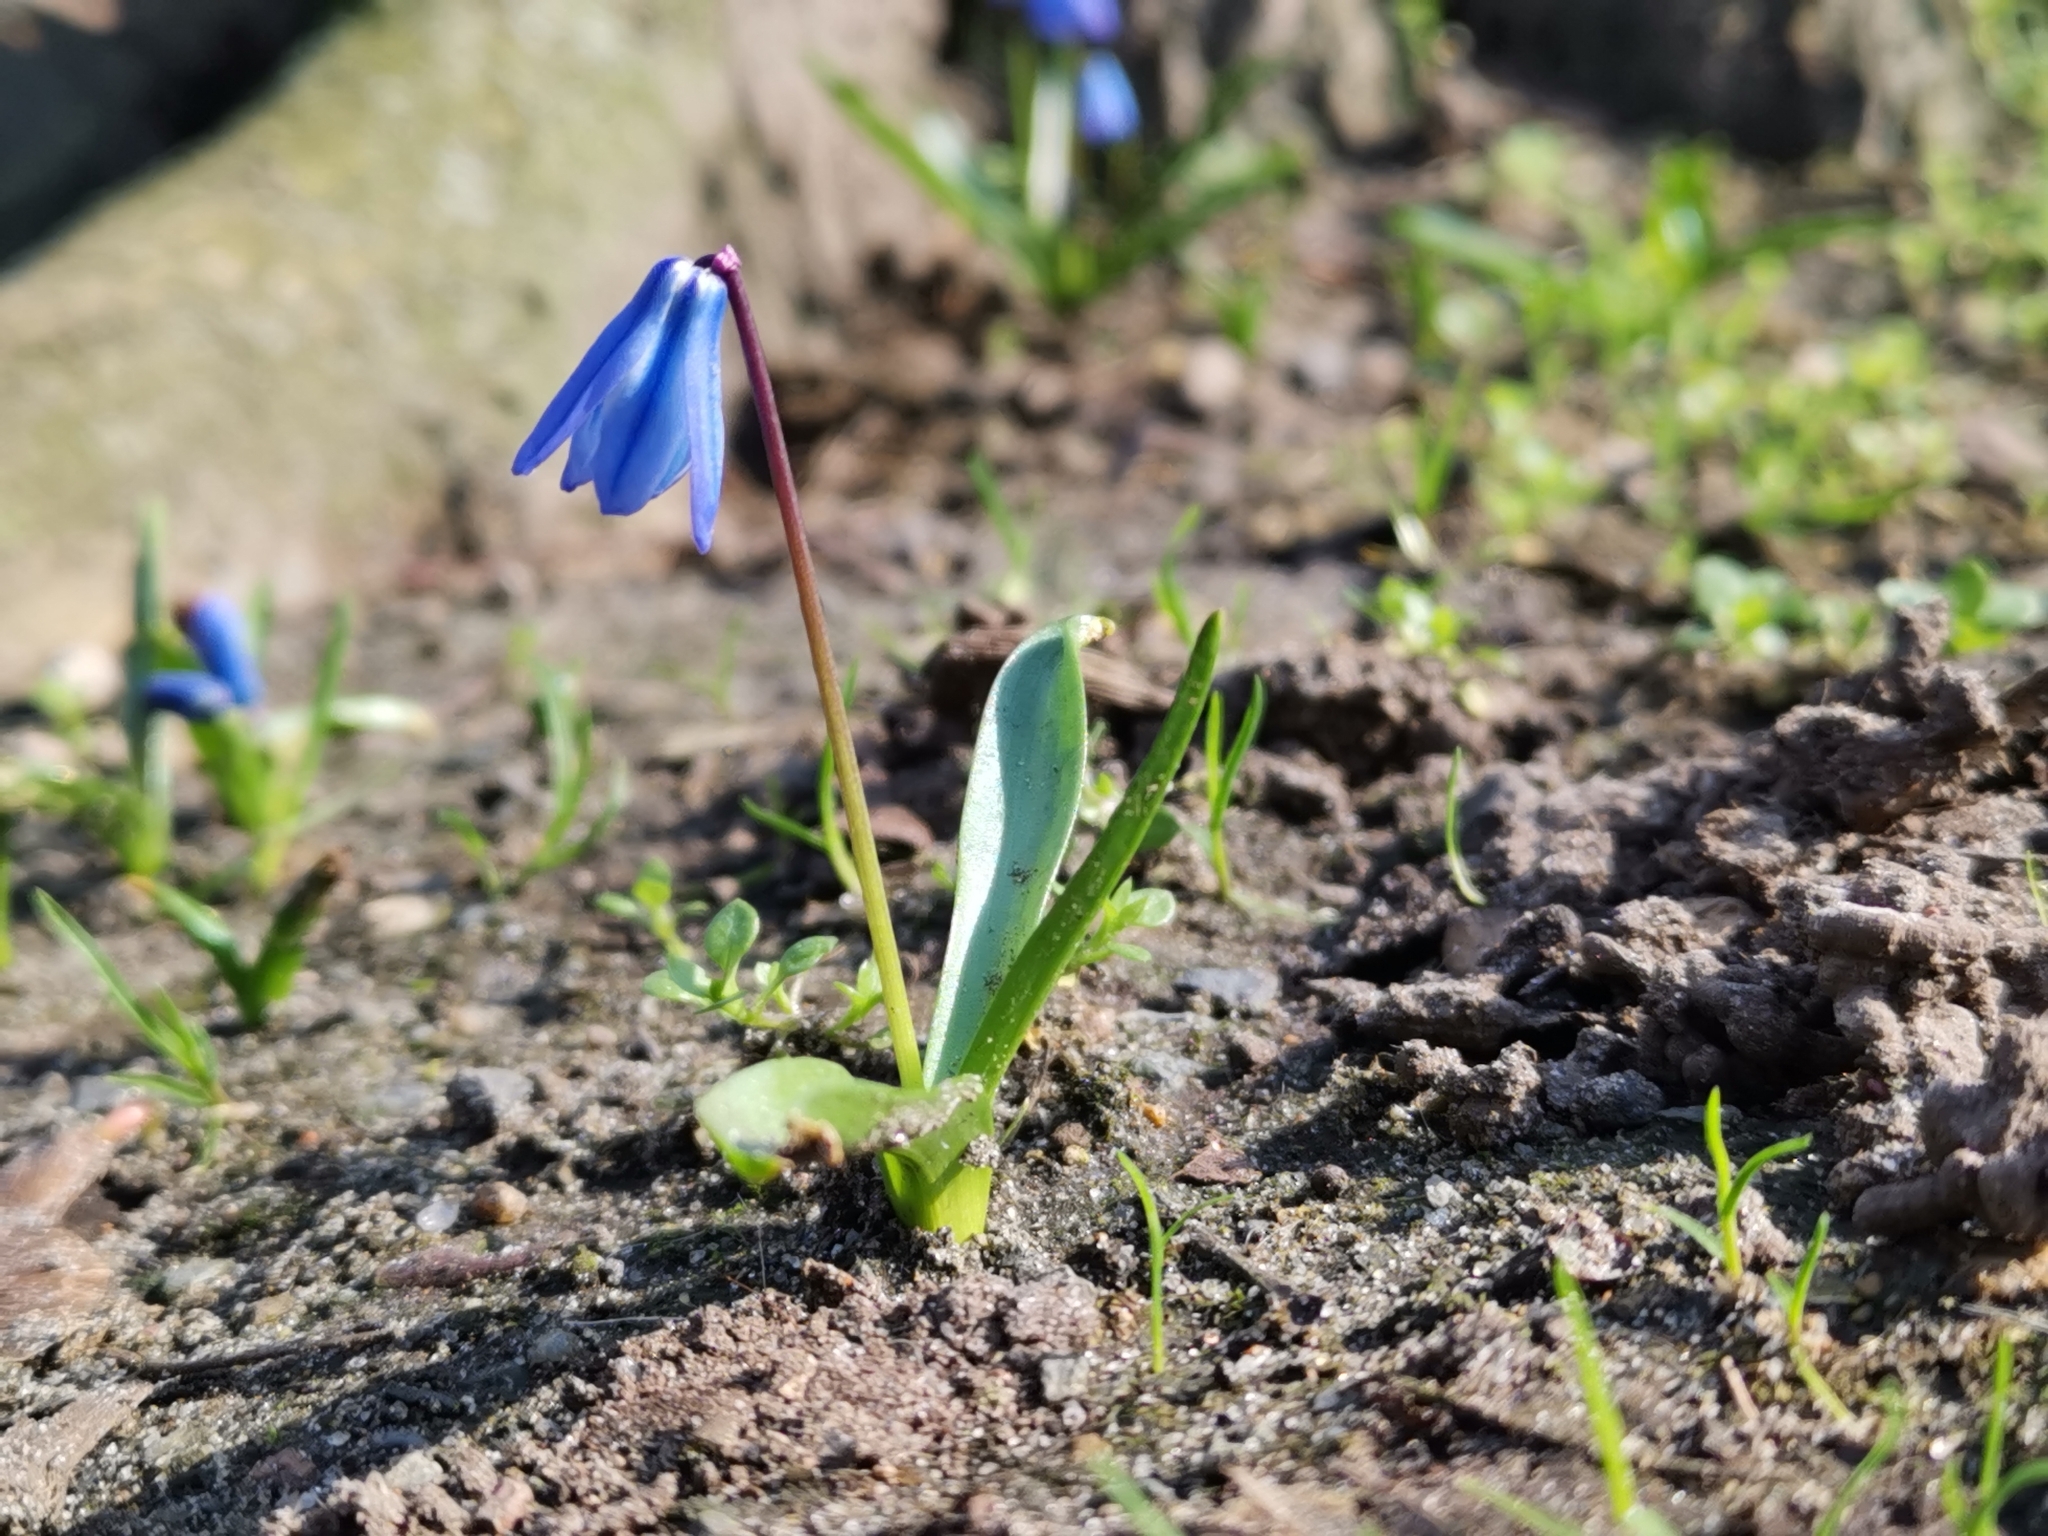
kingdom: Plantae
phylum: Tracheophyta
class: Liliopsida
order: Asparagales
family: Asparagaceae
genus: Scilla
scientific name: Scilla siberica
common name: Siberian squill
